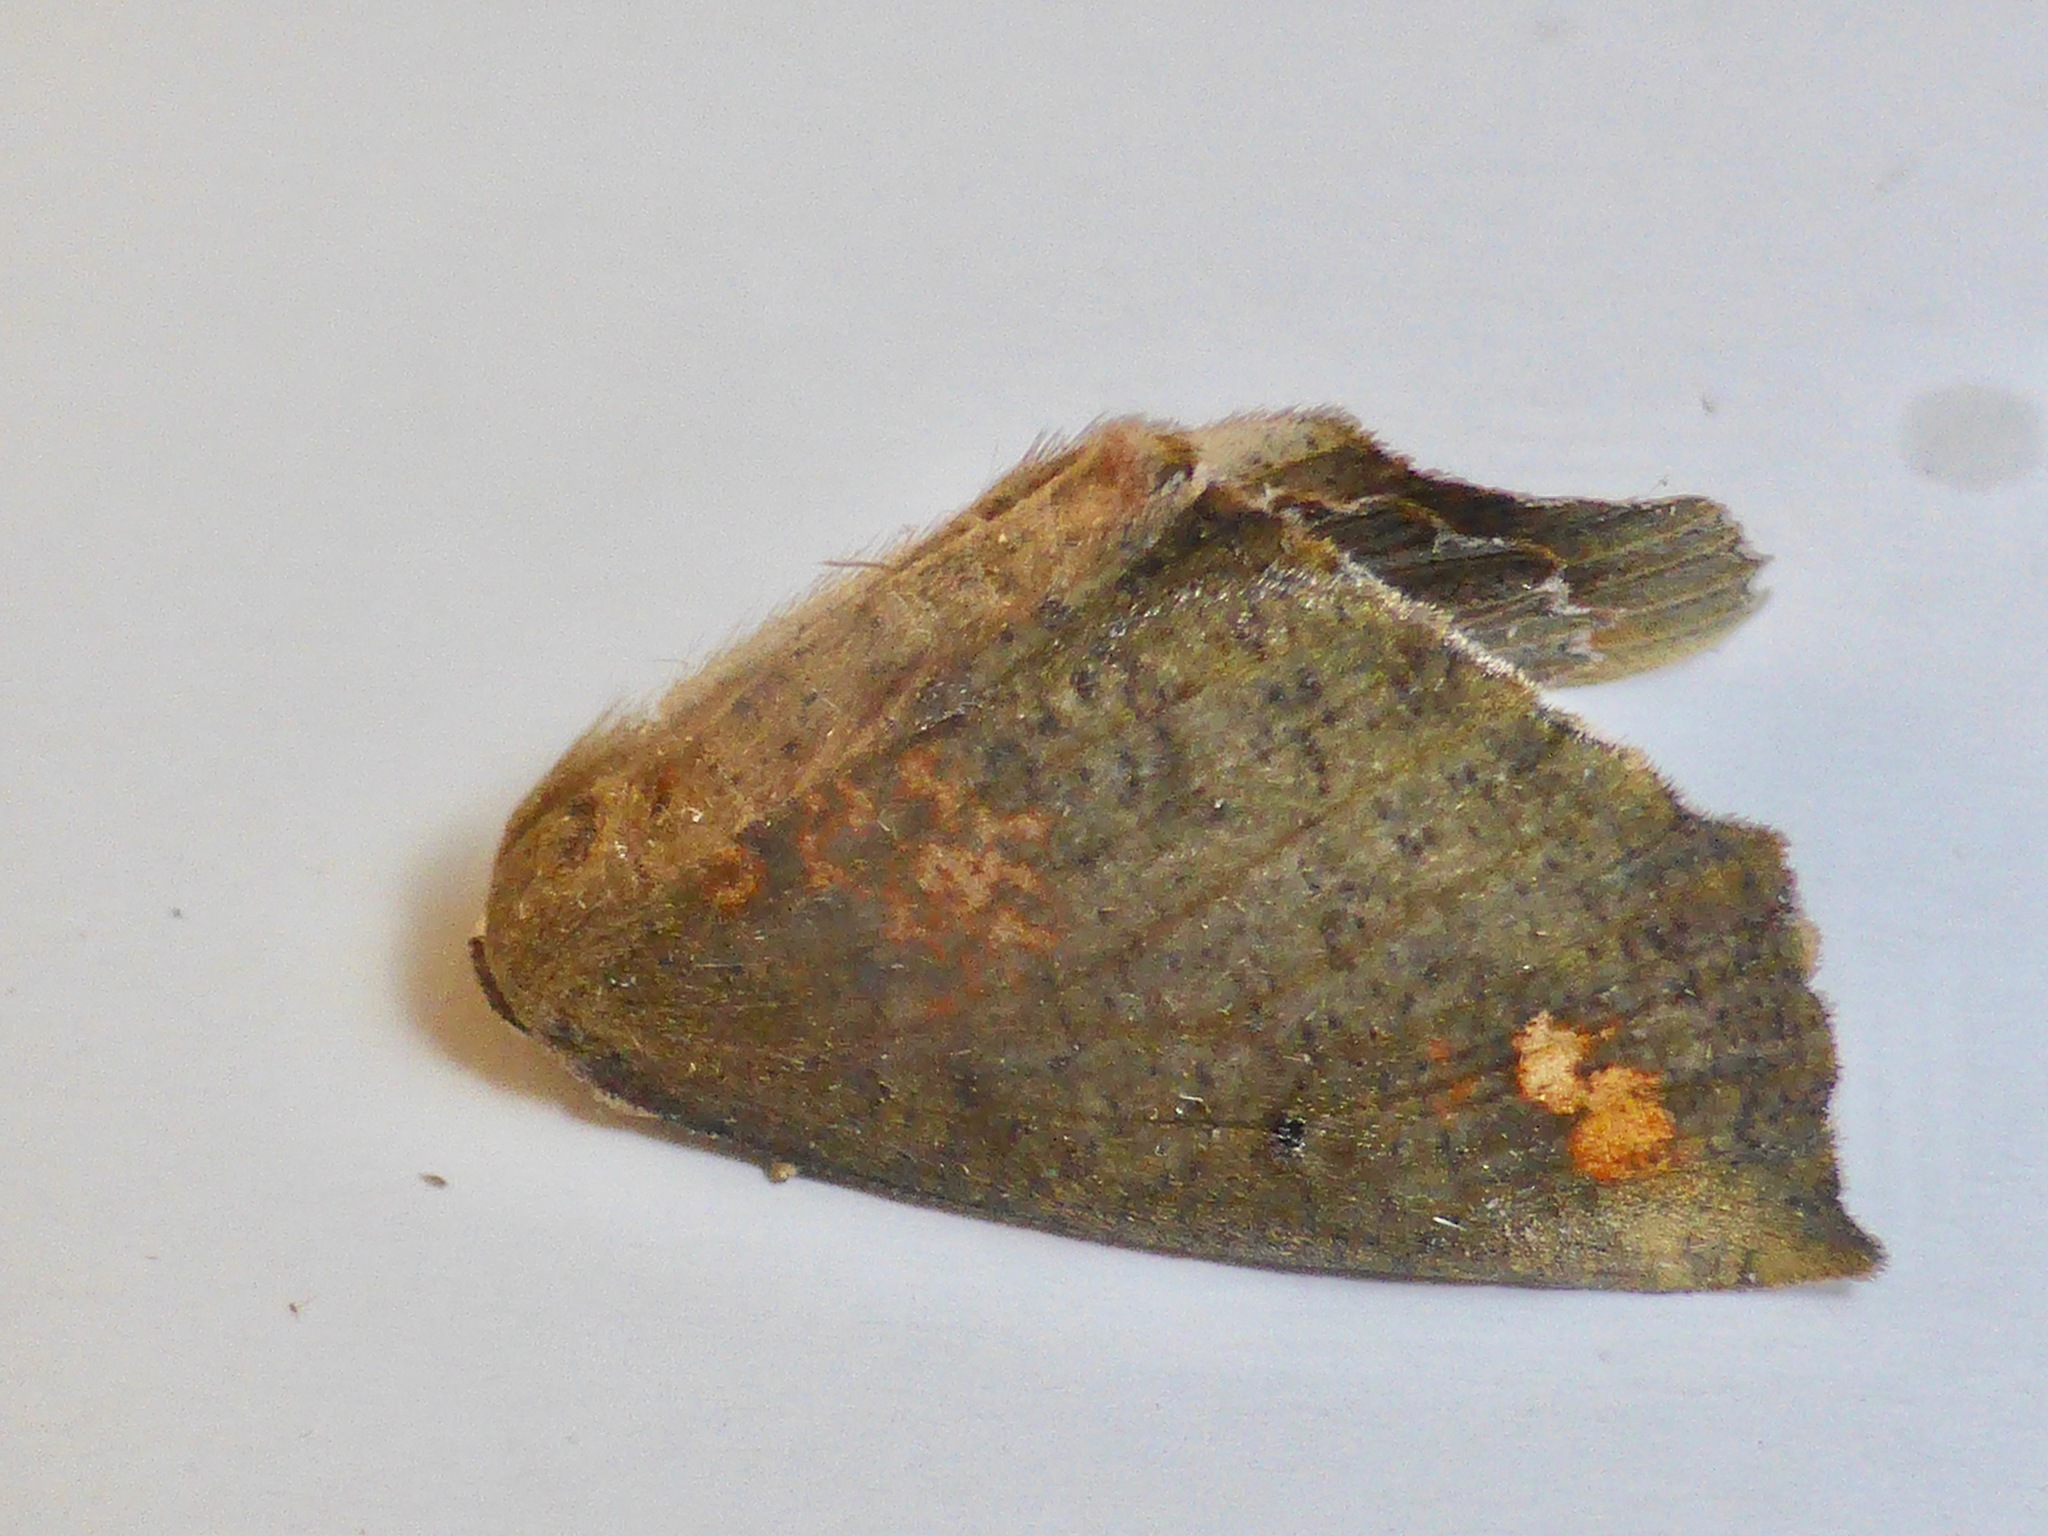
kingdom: Animalia
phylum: Arthropoda
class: Insecta
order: Lepidoptera
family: Geometridae
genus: Xyridacma
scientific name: Xyridacma ustaria
